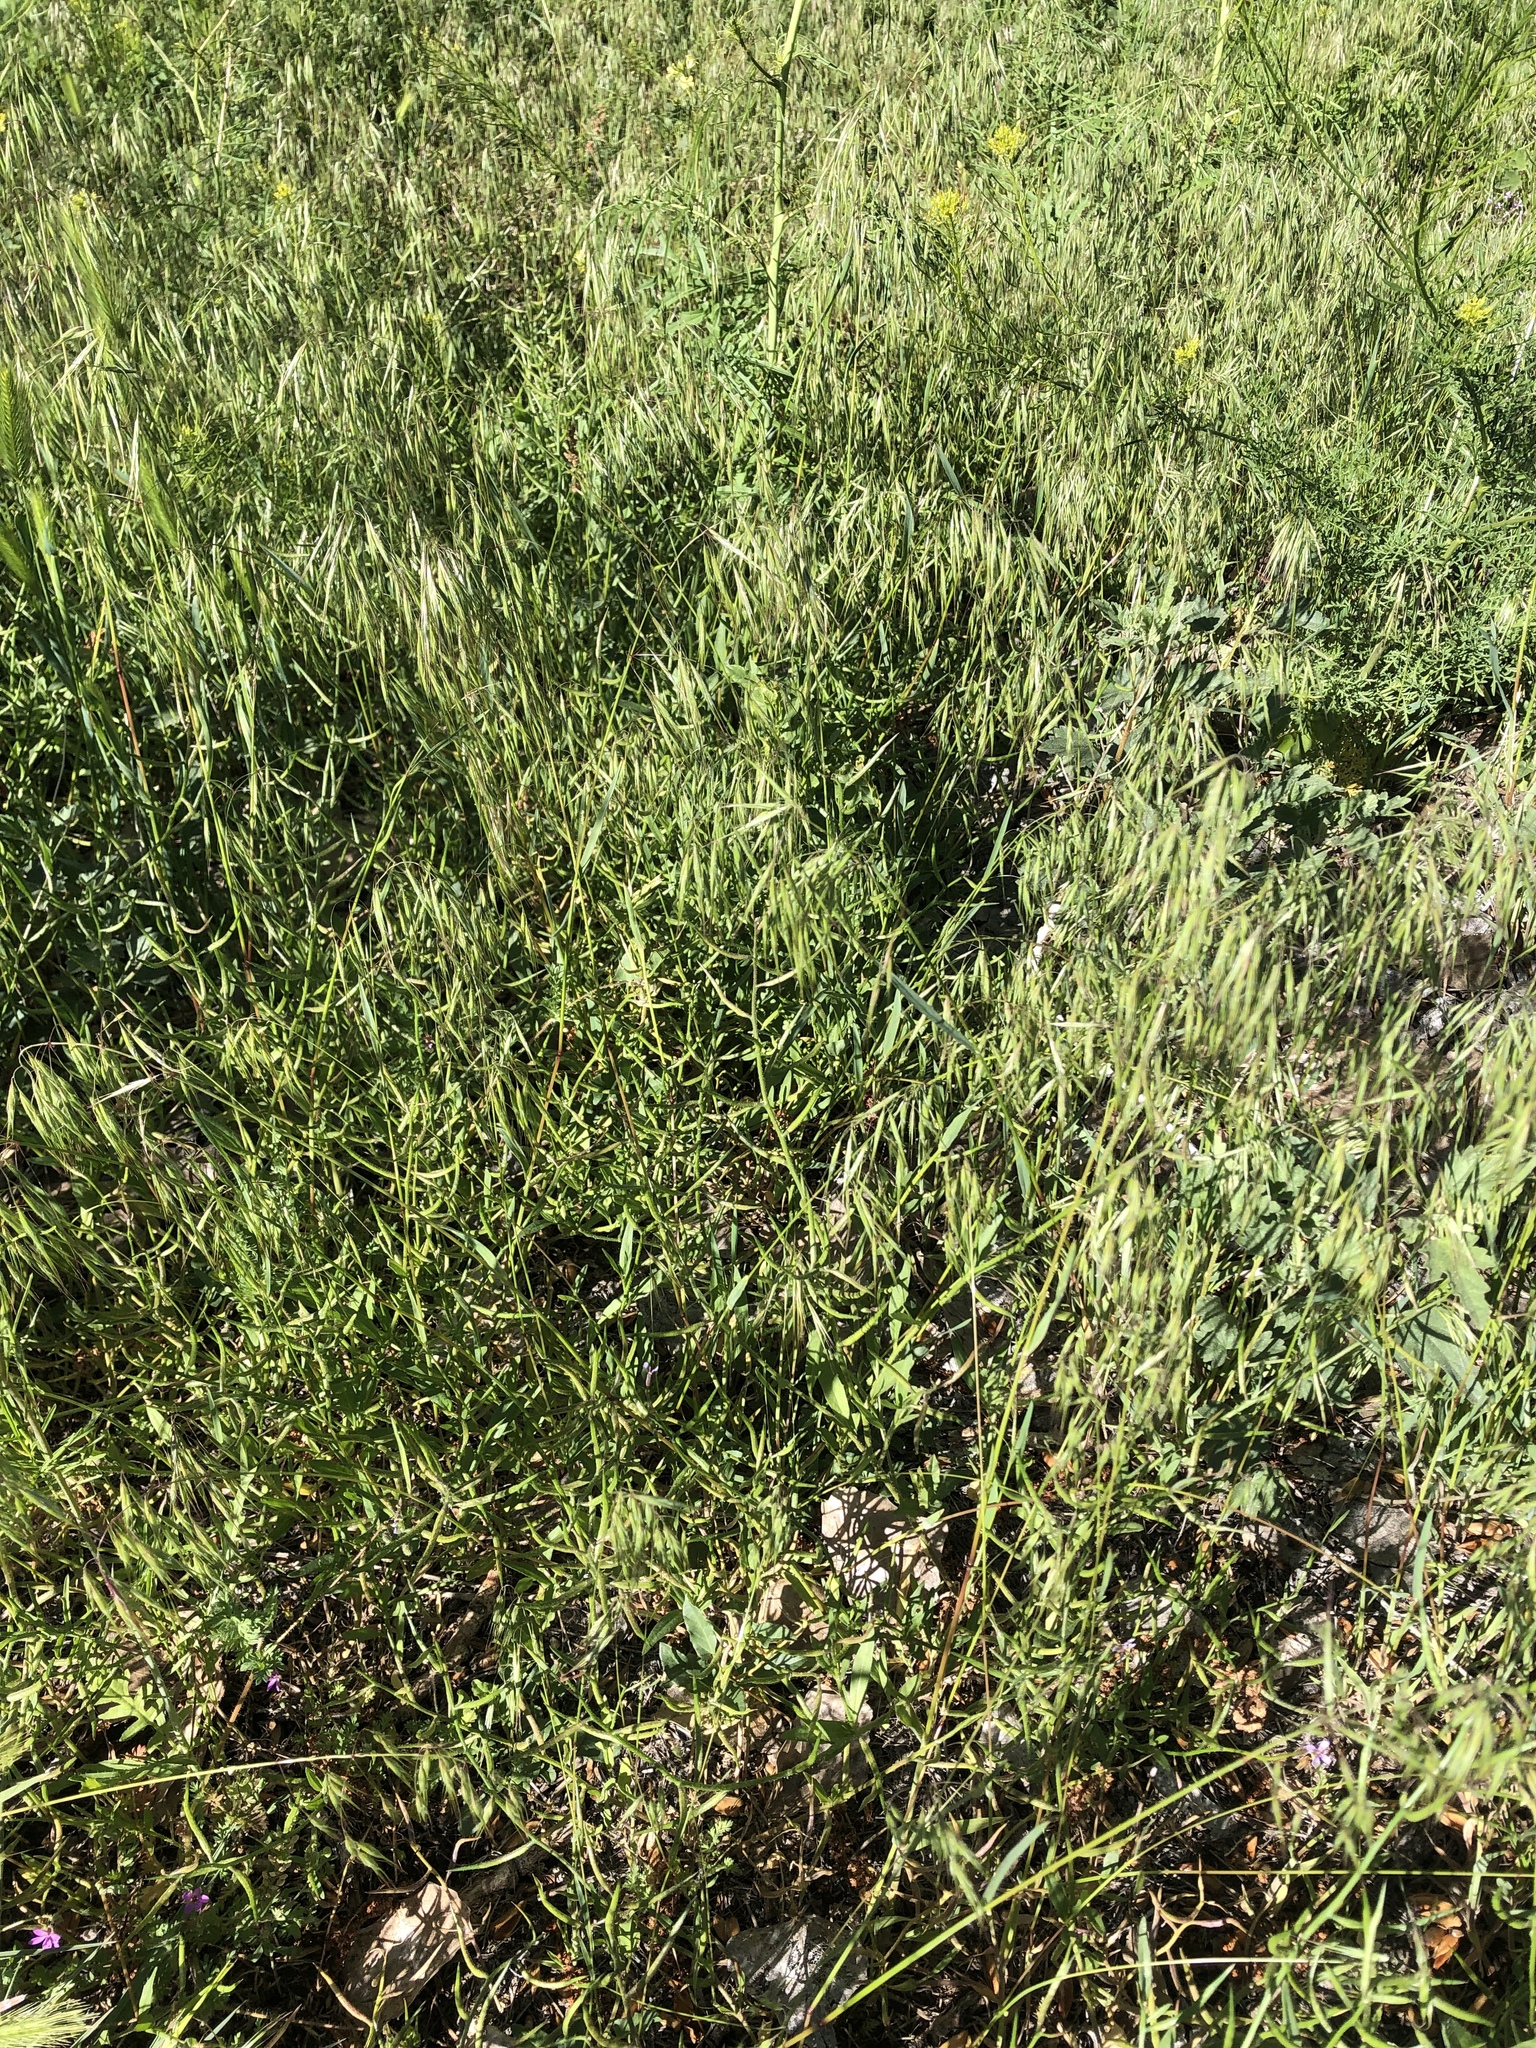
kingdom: Plantae
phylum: Tracheophyta
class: Liliopsida
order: Poales
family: Poaceae
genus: Bromus
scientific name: Bromus tectorum
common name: Cheatgrass
